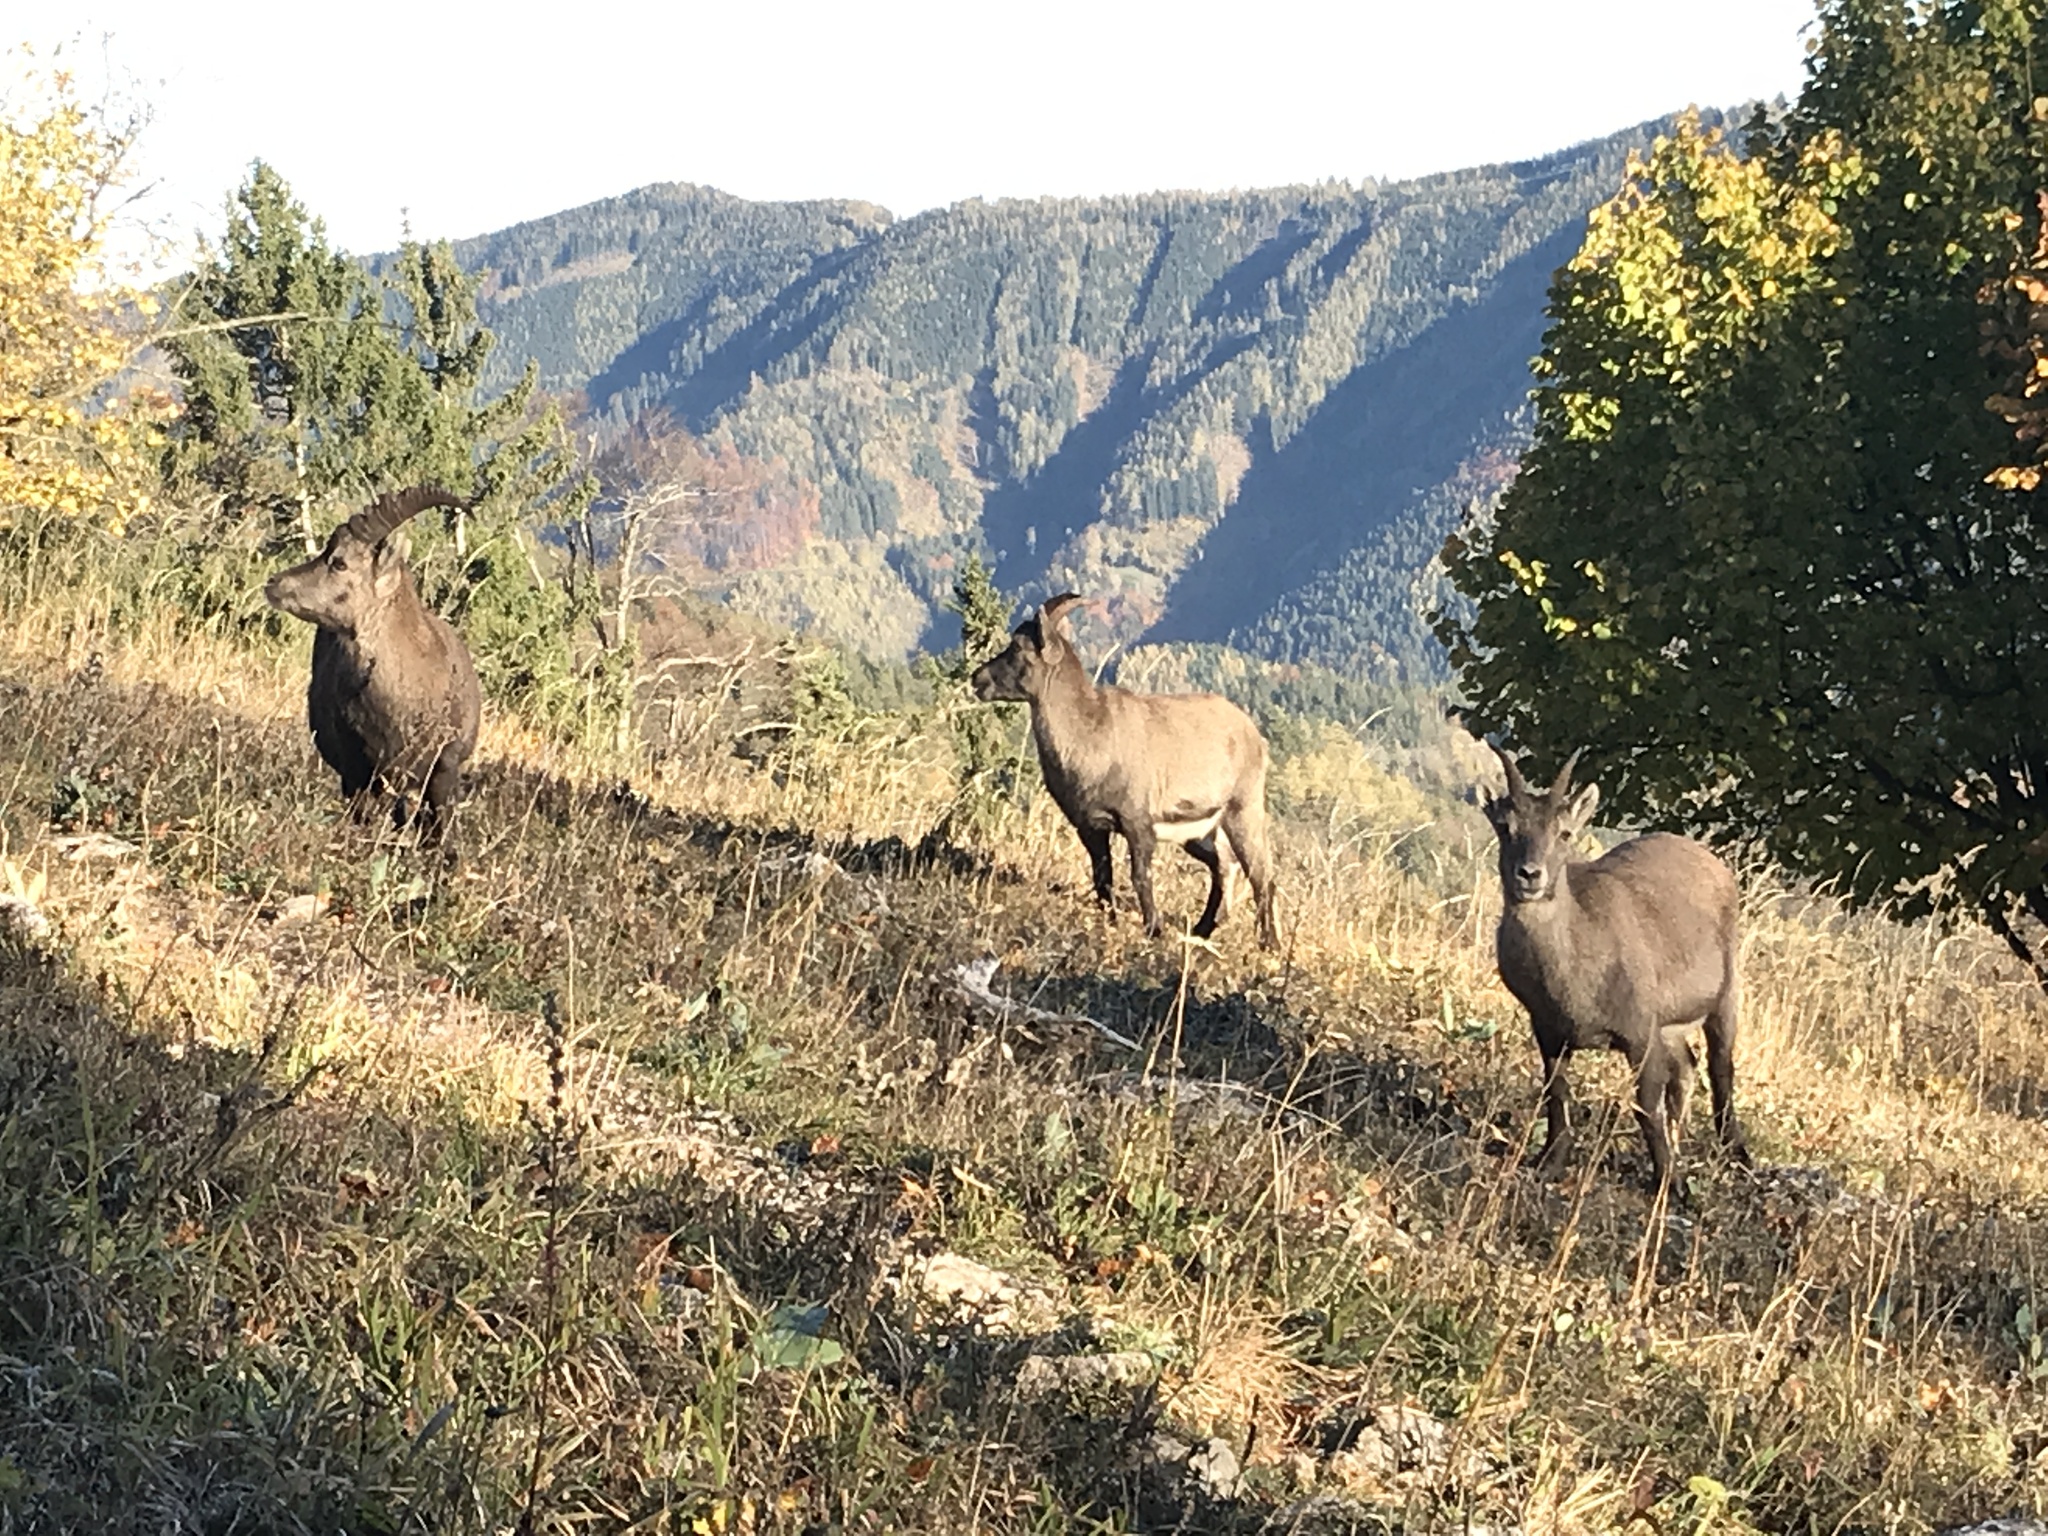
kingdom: Animalia
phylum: Chordata
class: Mammalia
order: Artiodactyla
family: Bovidae
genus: Capra
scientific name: Capra ibex
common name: Alpine ibex
